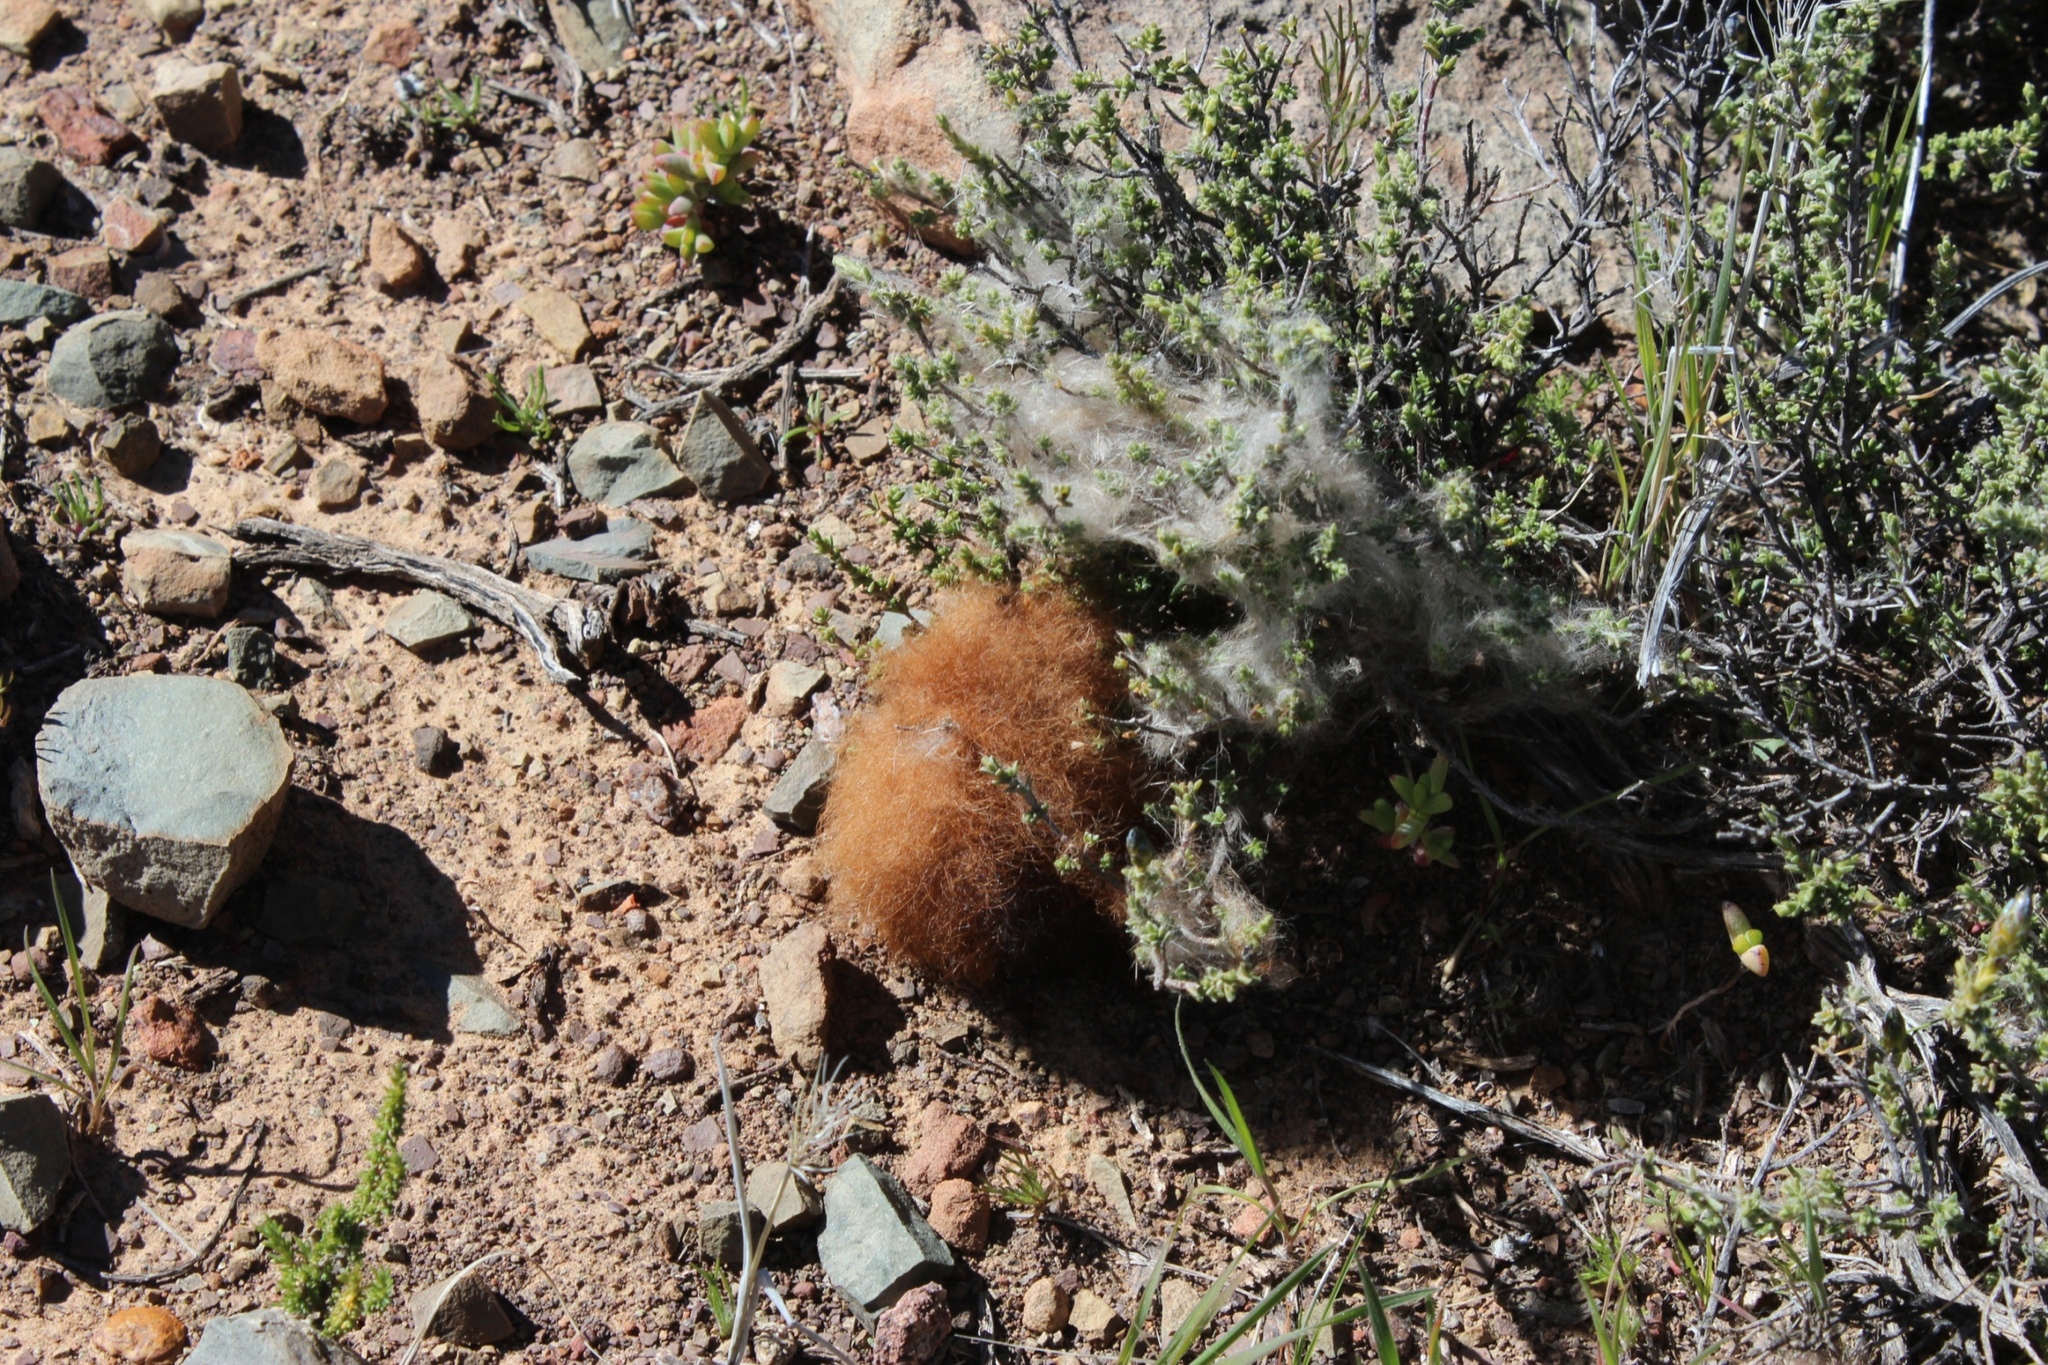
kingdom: Animalia
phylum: Chordata
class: Mammalia
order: Lagomorpha
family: Leporidae
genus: Pronolagus
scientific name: Pronolagus saundersiae
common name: Hewitt's red rock hare
